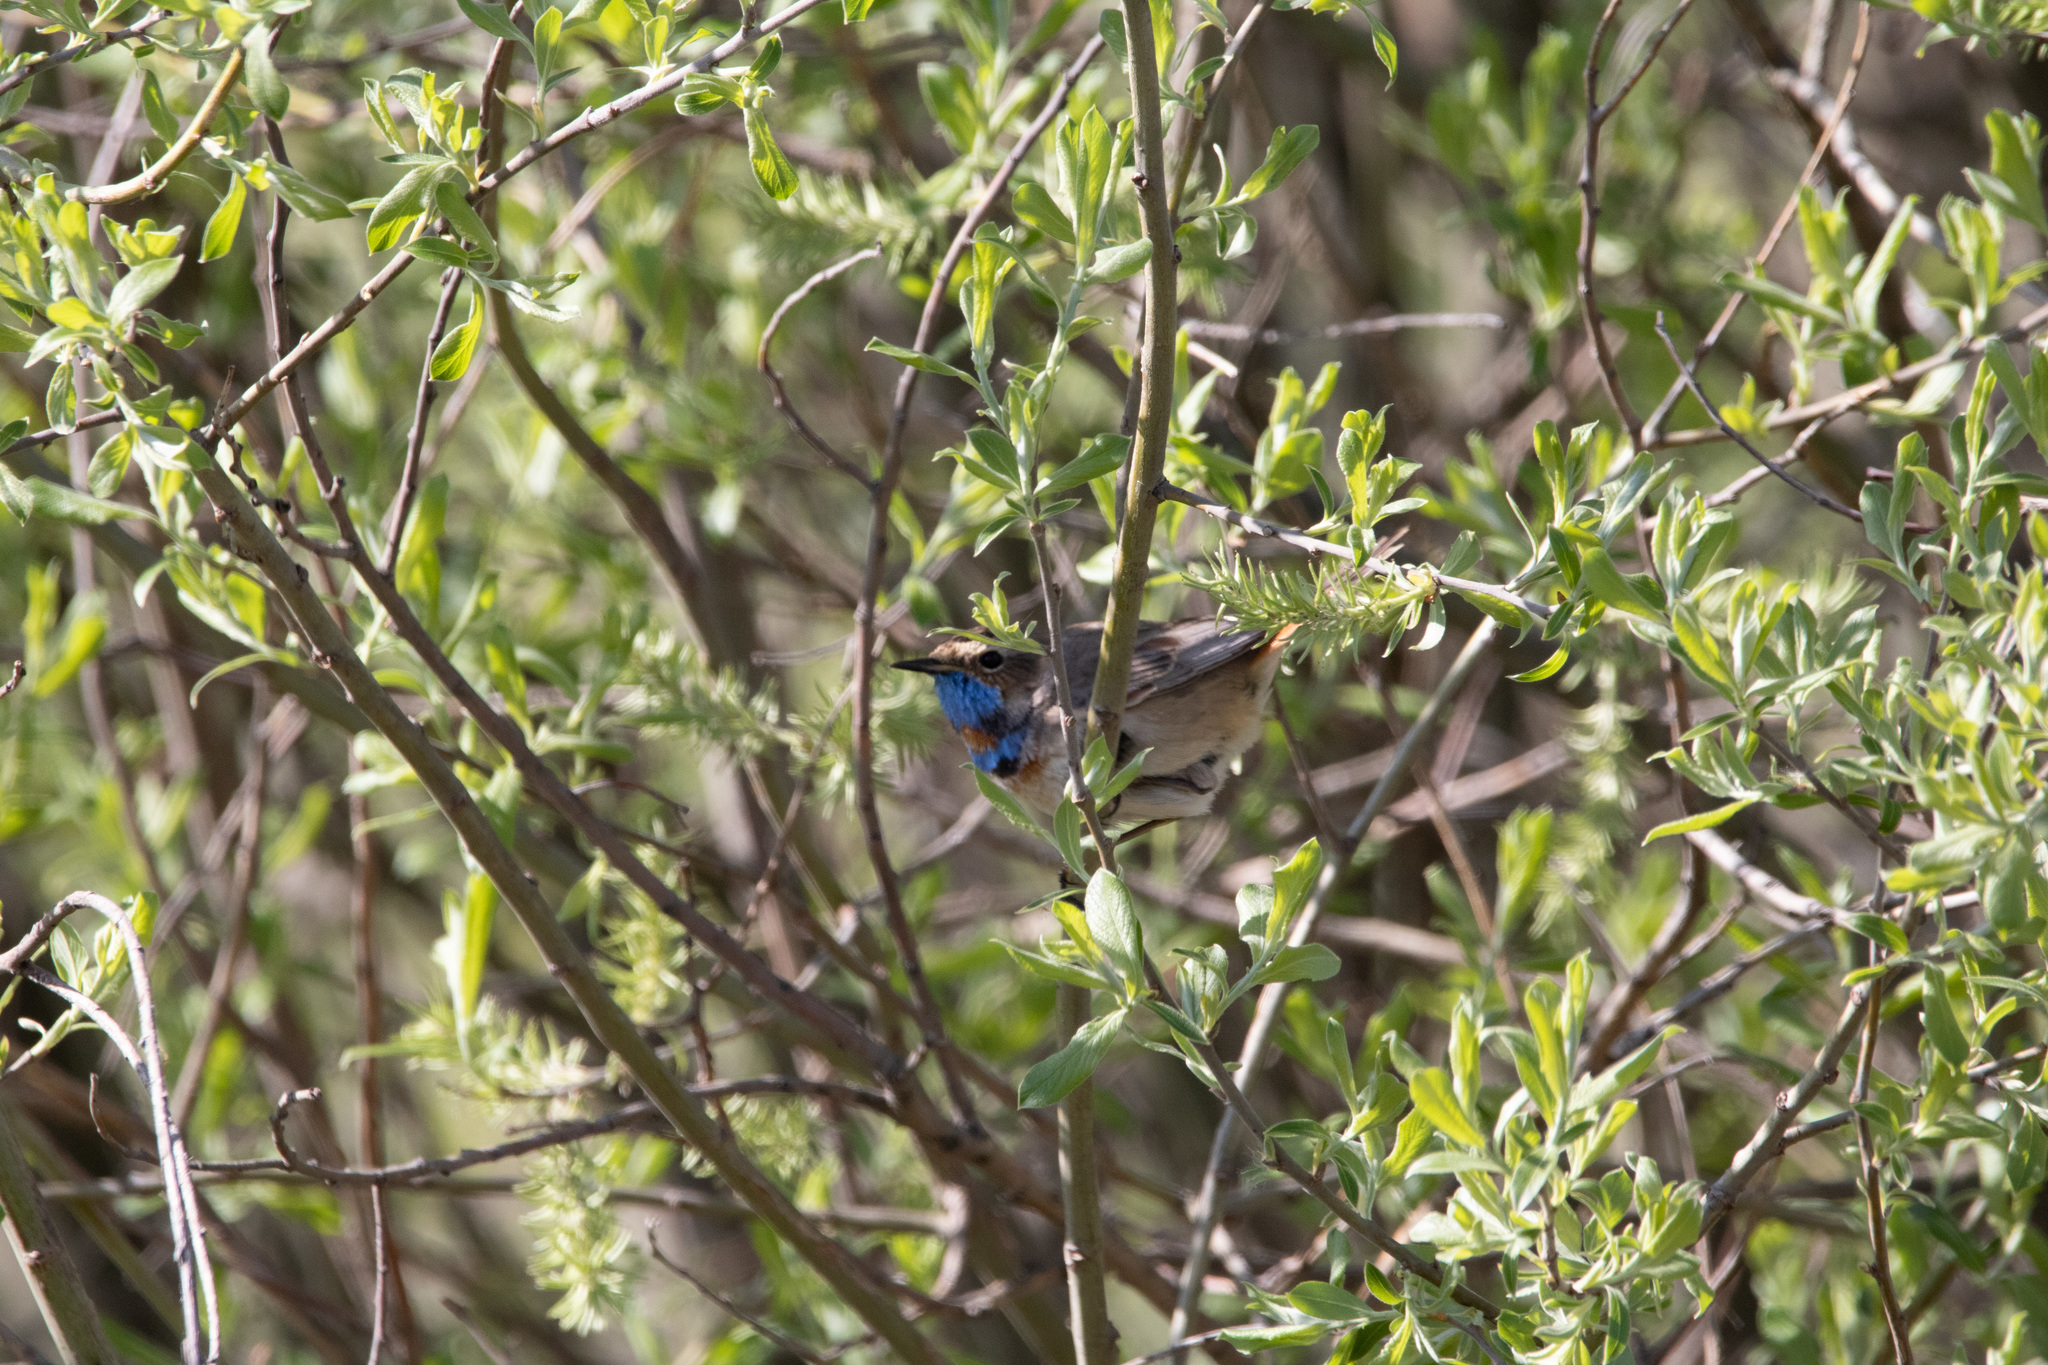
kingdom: Animalia
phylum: Chordata
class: Aves
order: Passeriformes
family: Muscicapidae
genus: Luscinia
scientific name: Luscinia svecica
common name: Bluethroat
